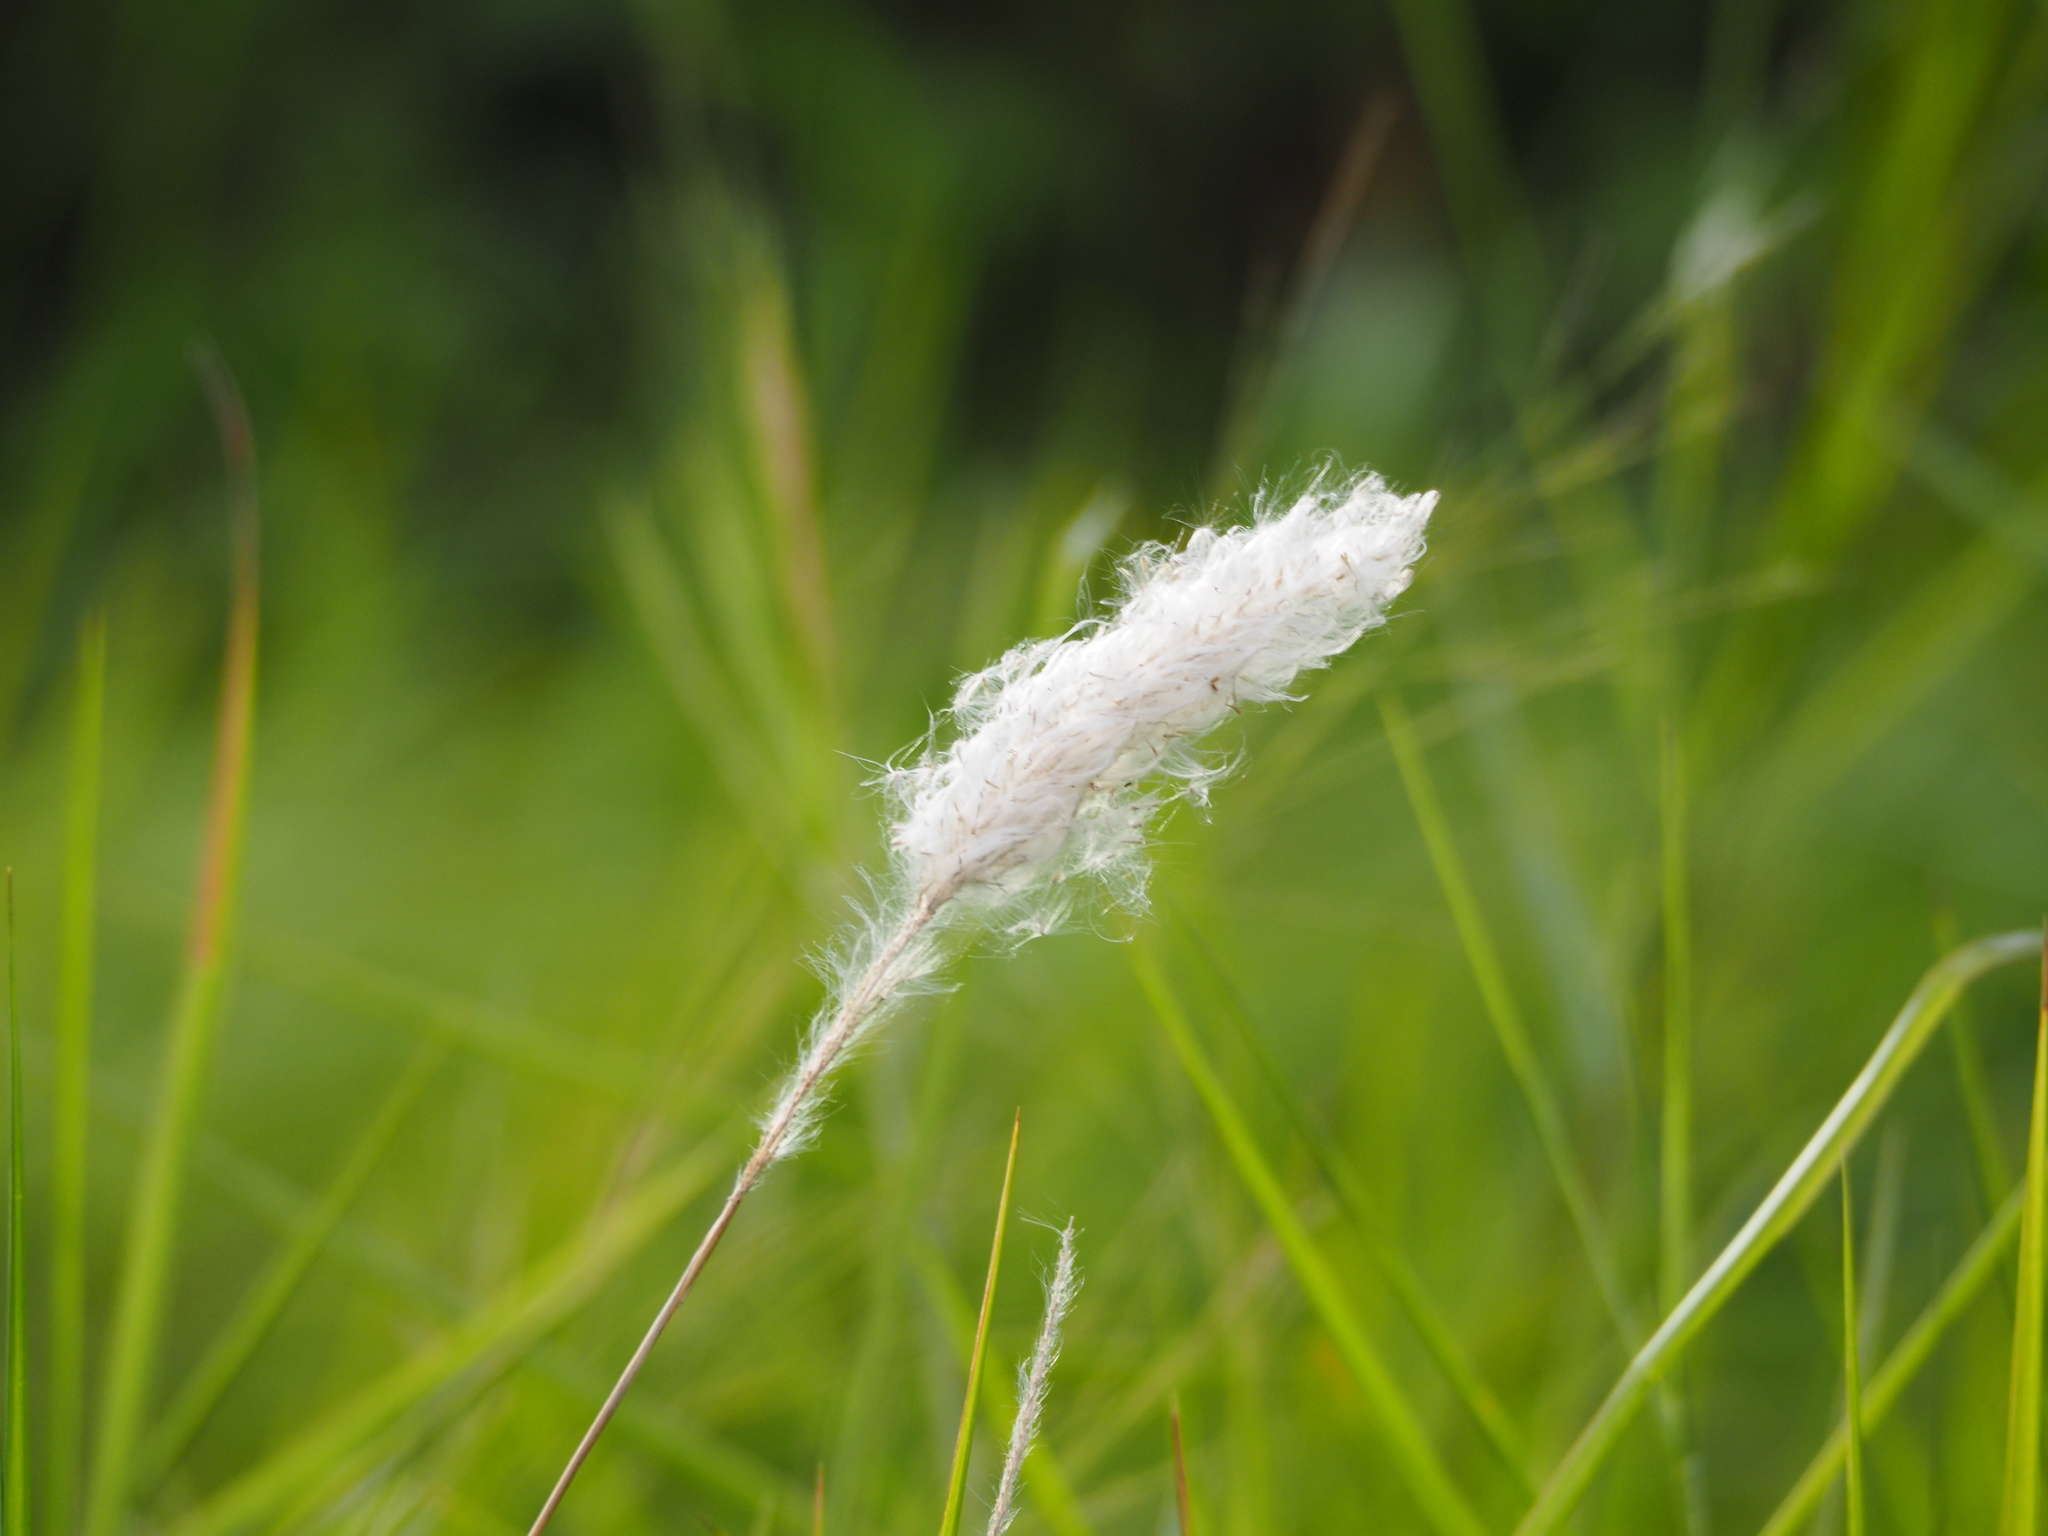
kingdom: Plantae
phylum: Tracheophyta
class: Liliopsida
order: Poales
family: Poaceae
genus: Imperata
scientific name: Imperata cylindrica
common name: Cogongrass
